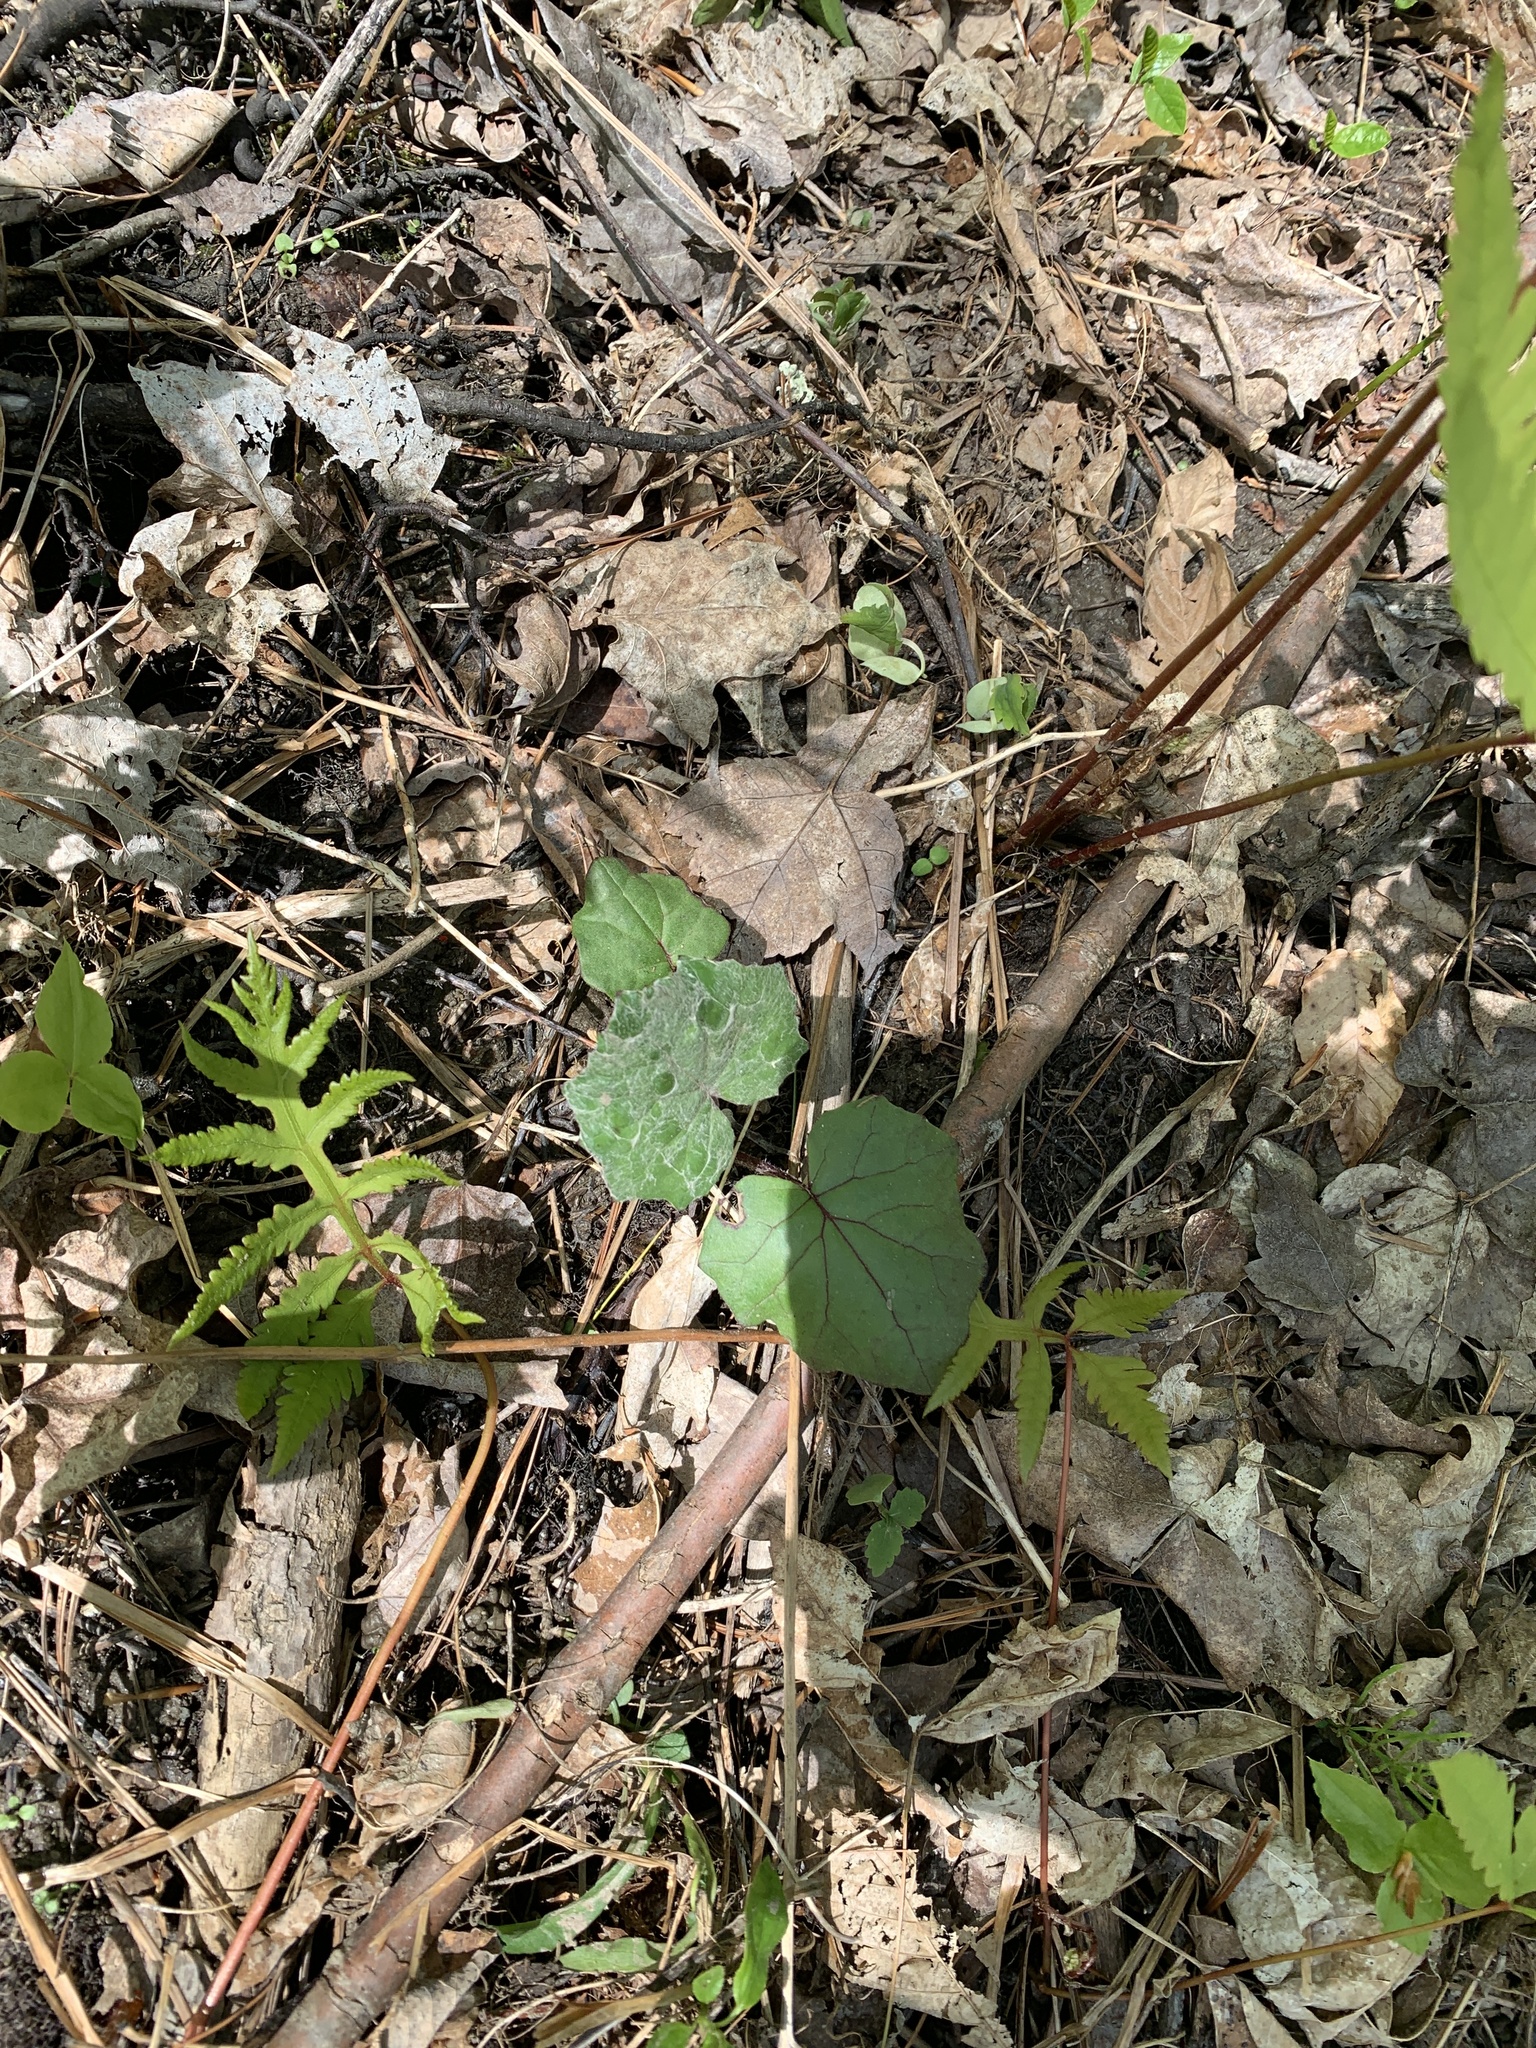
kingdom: Plantae
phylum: Tracheophyta
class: Magnoliopsida
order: Asterales
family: Asteraceae
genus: Tussilago
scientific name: Tussilago farfara
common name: Coltsfoot
